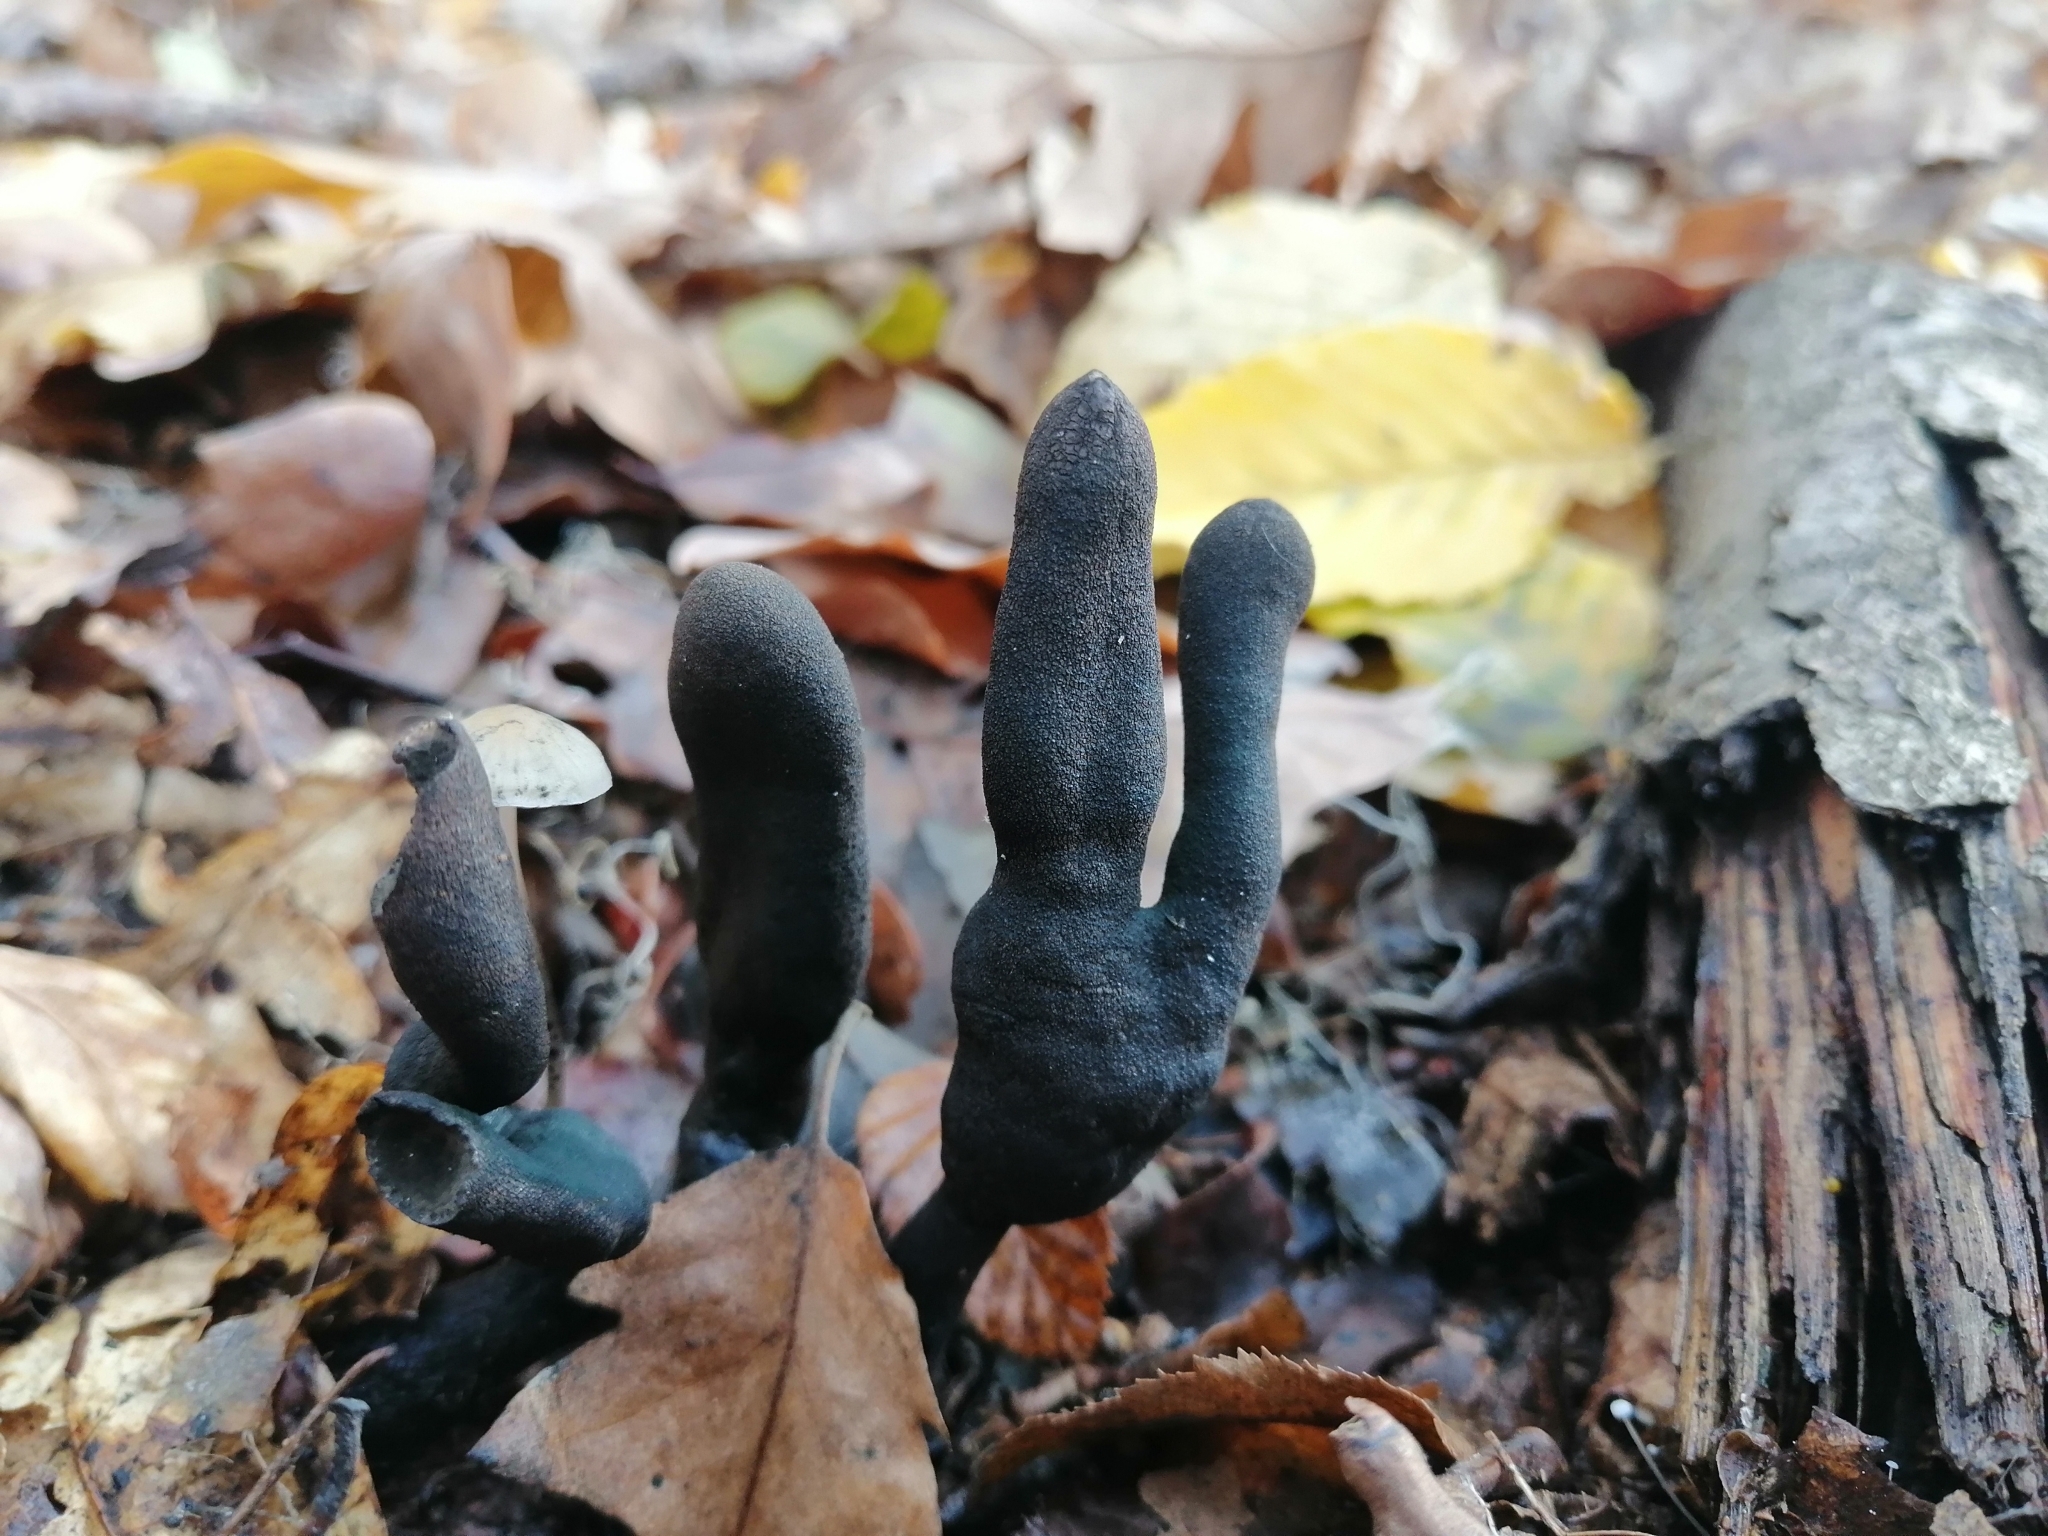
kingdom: Fungi
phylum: Ascomycota
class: Sordariomycetes
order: Xylariales
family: Xylariaceae
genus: Xylaria
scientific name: Xylaria polymorpha
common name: Dead man's fingers
